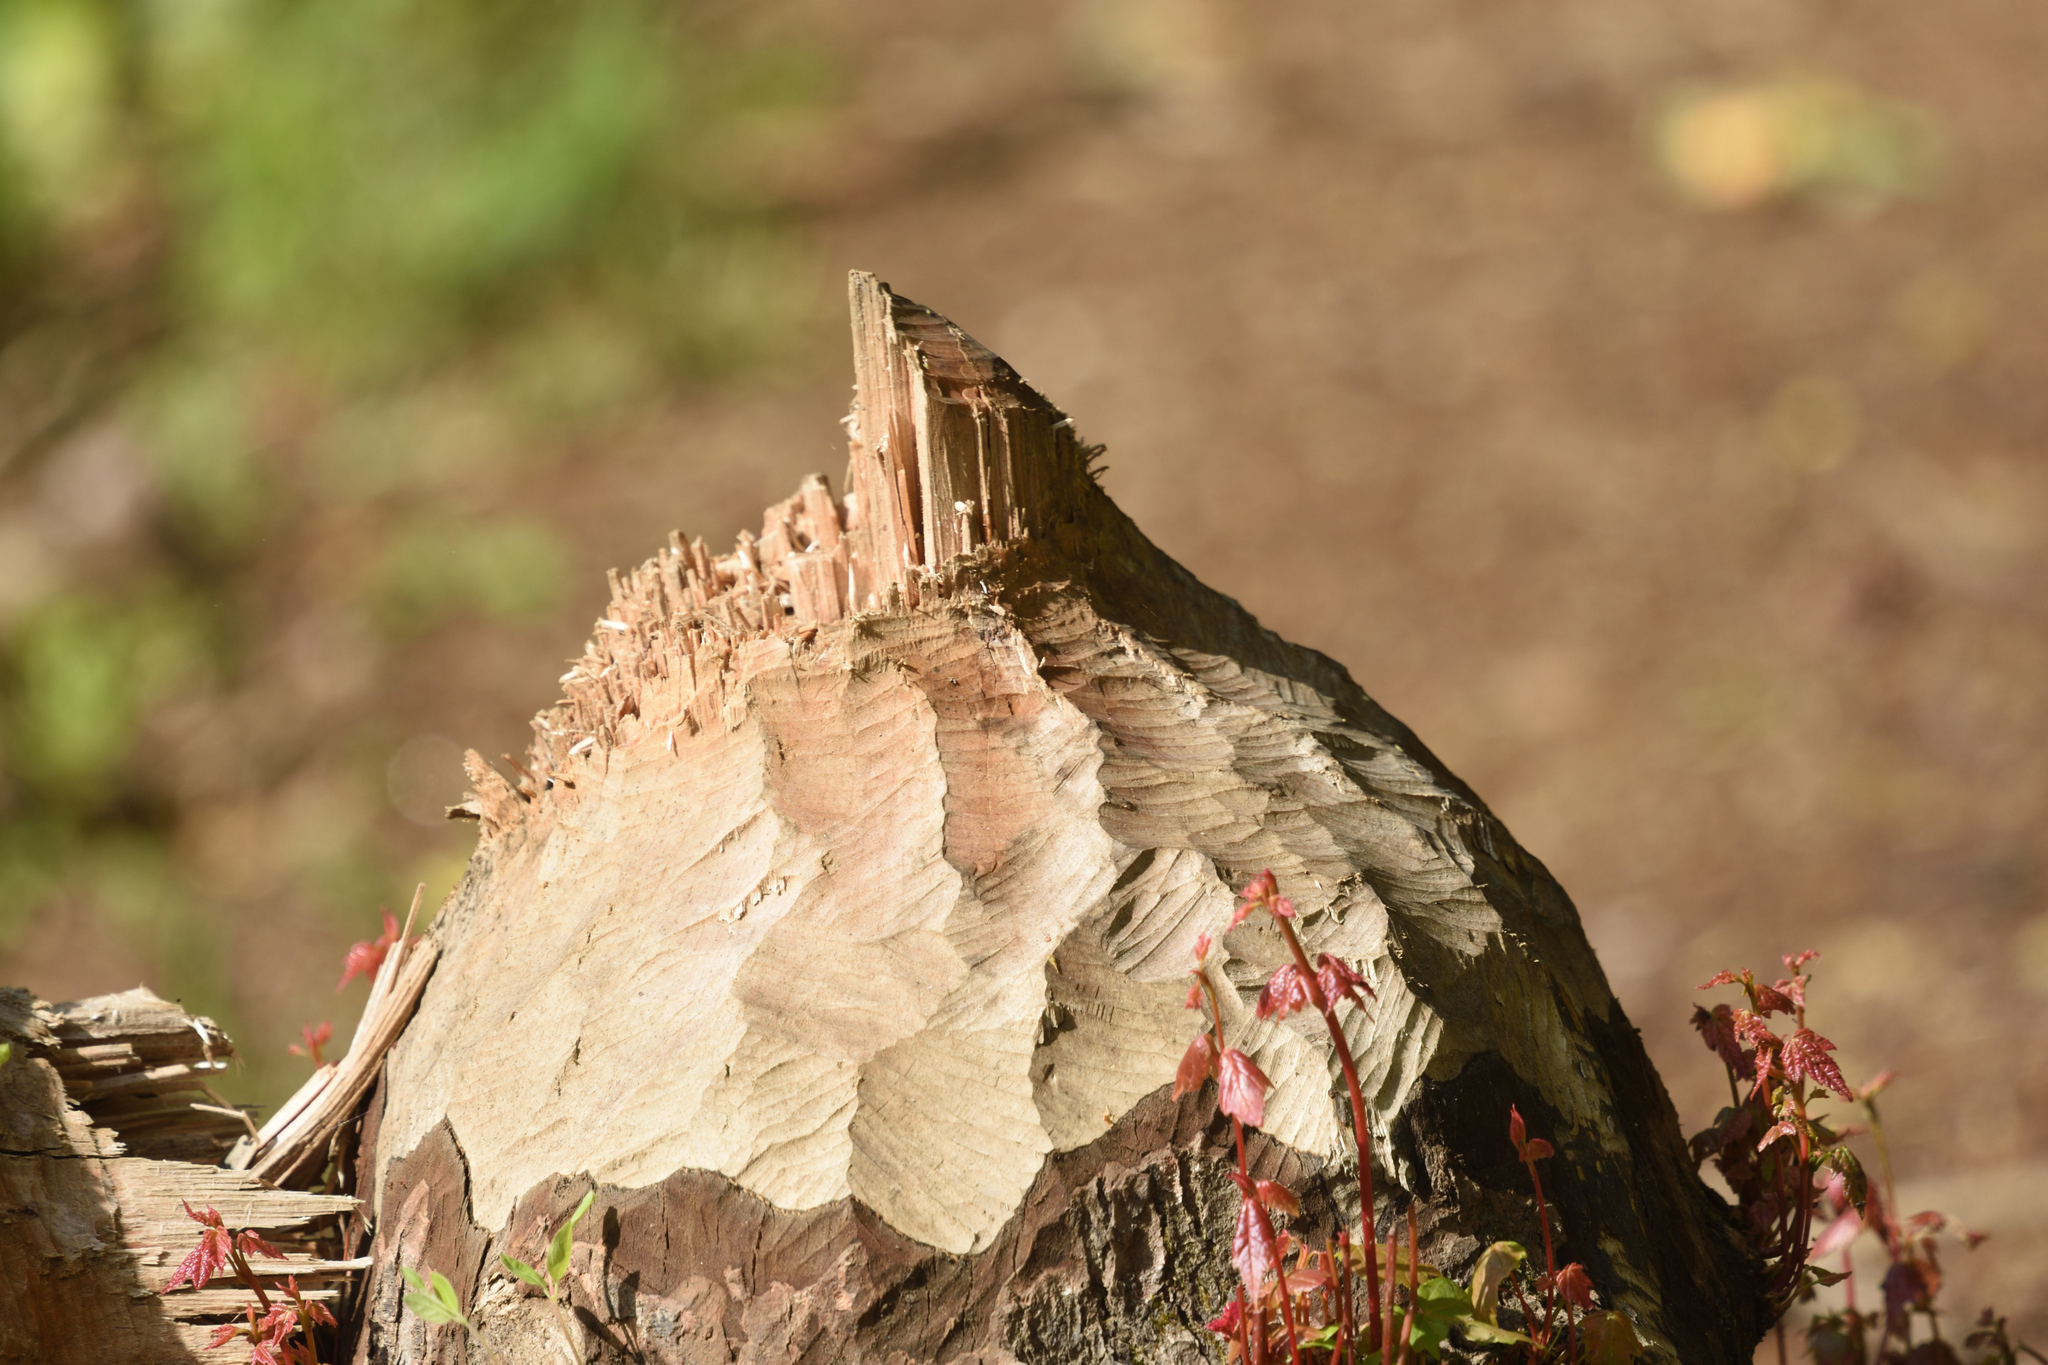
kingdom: Animalia
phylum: Chordata
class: Mammalia
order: Rodentia
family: Castoridae
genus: Castor
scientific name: Castor canadensis
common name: American beaver
